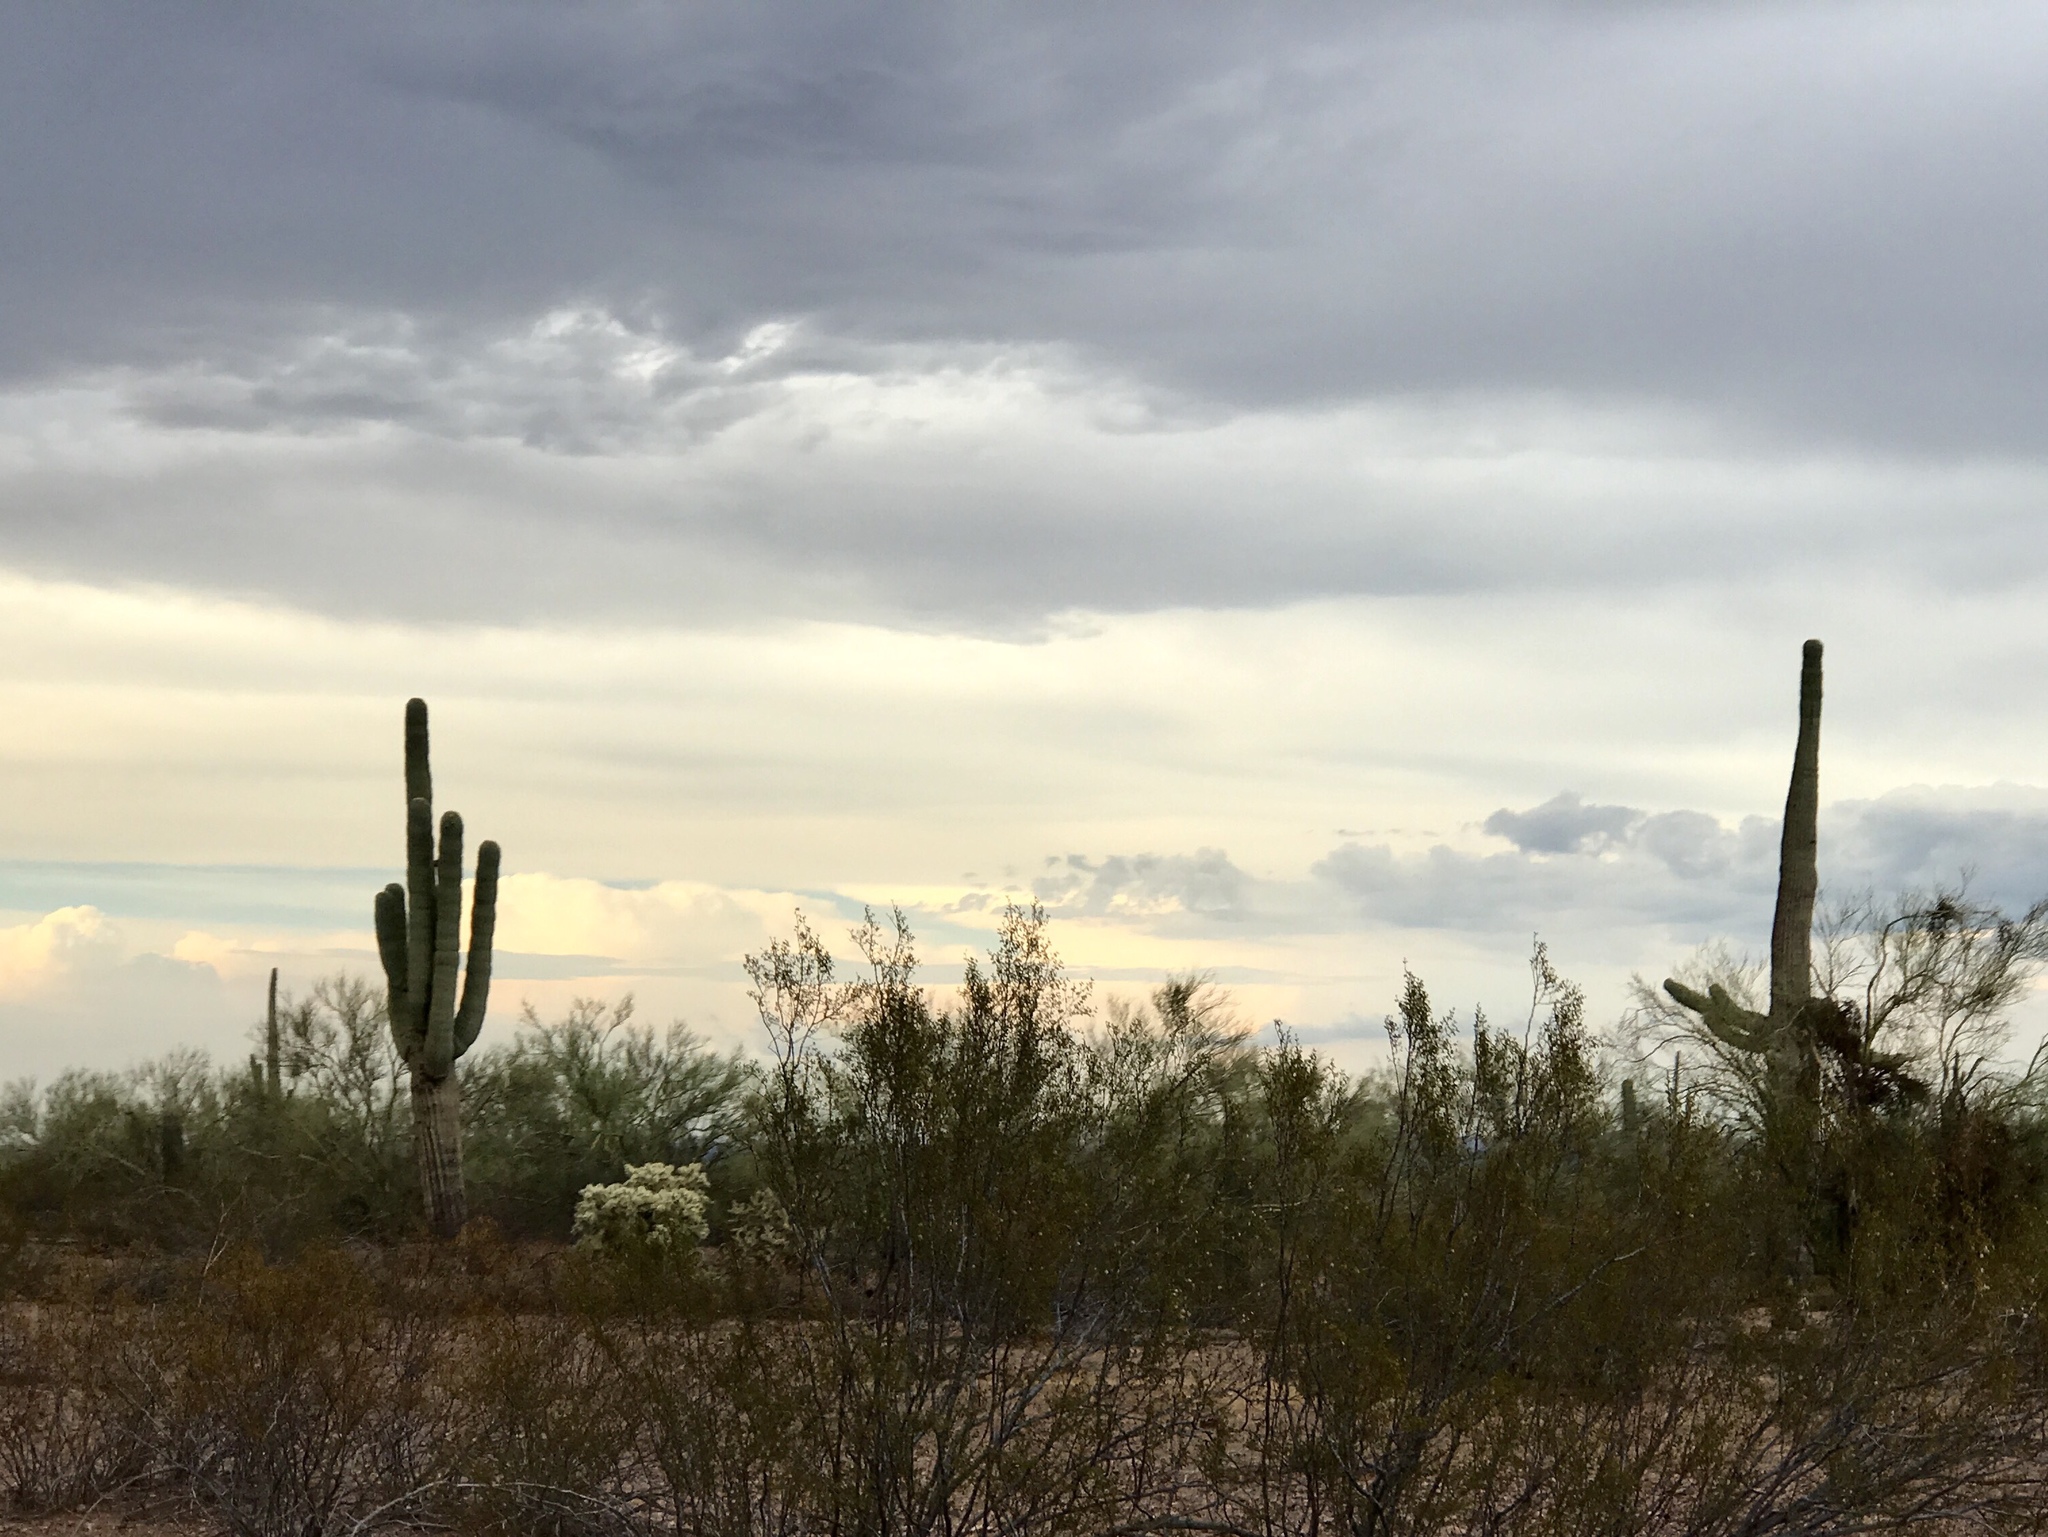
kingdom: Plantae
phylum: Tracheophyta
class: Magnoliopsida
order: Caryophyllales
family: Cactaceae
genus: Carnegiea
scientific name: Carnegiea gigantea
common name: Saguaro
